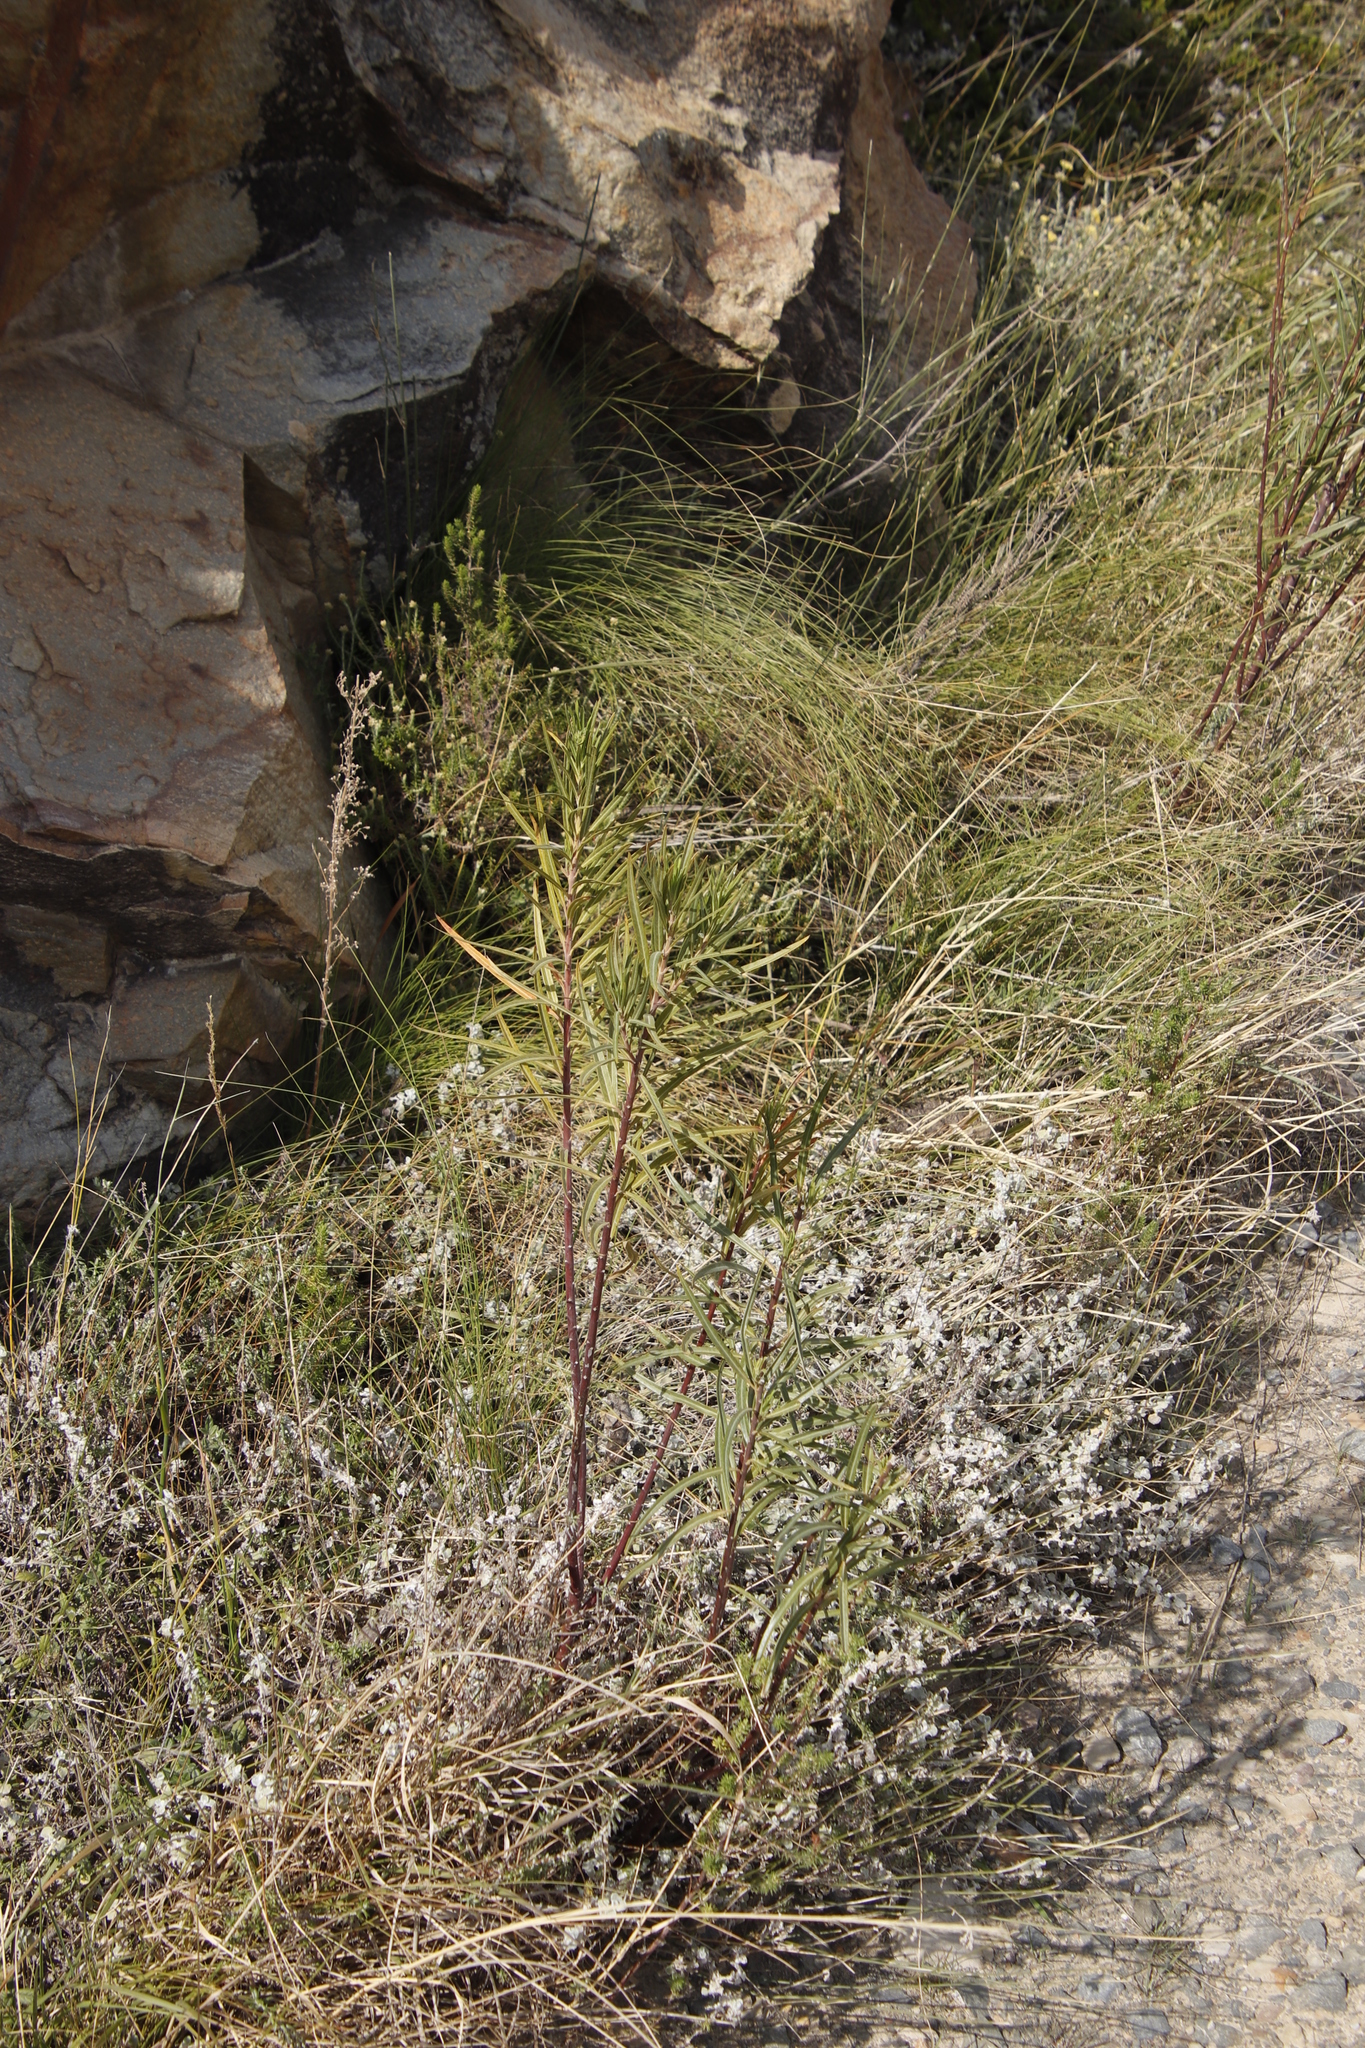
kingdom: Plantae
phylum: Tracheophyta
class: Magnoliopsida
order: Gentianales
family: Apocynaceae
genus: Gomphocarpus
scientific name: Gomphocarpus fruticosus
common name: Milkweed
